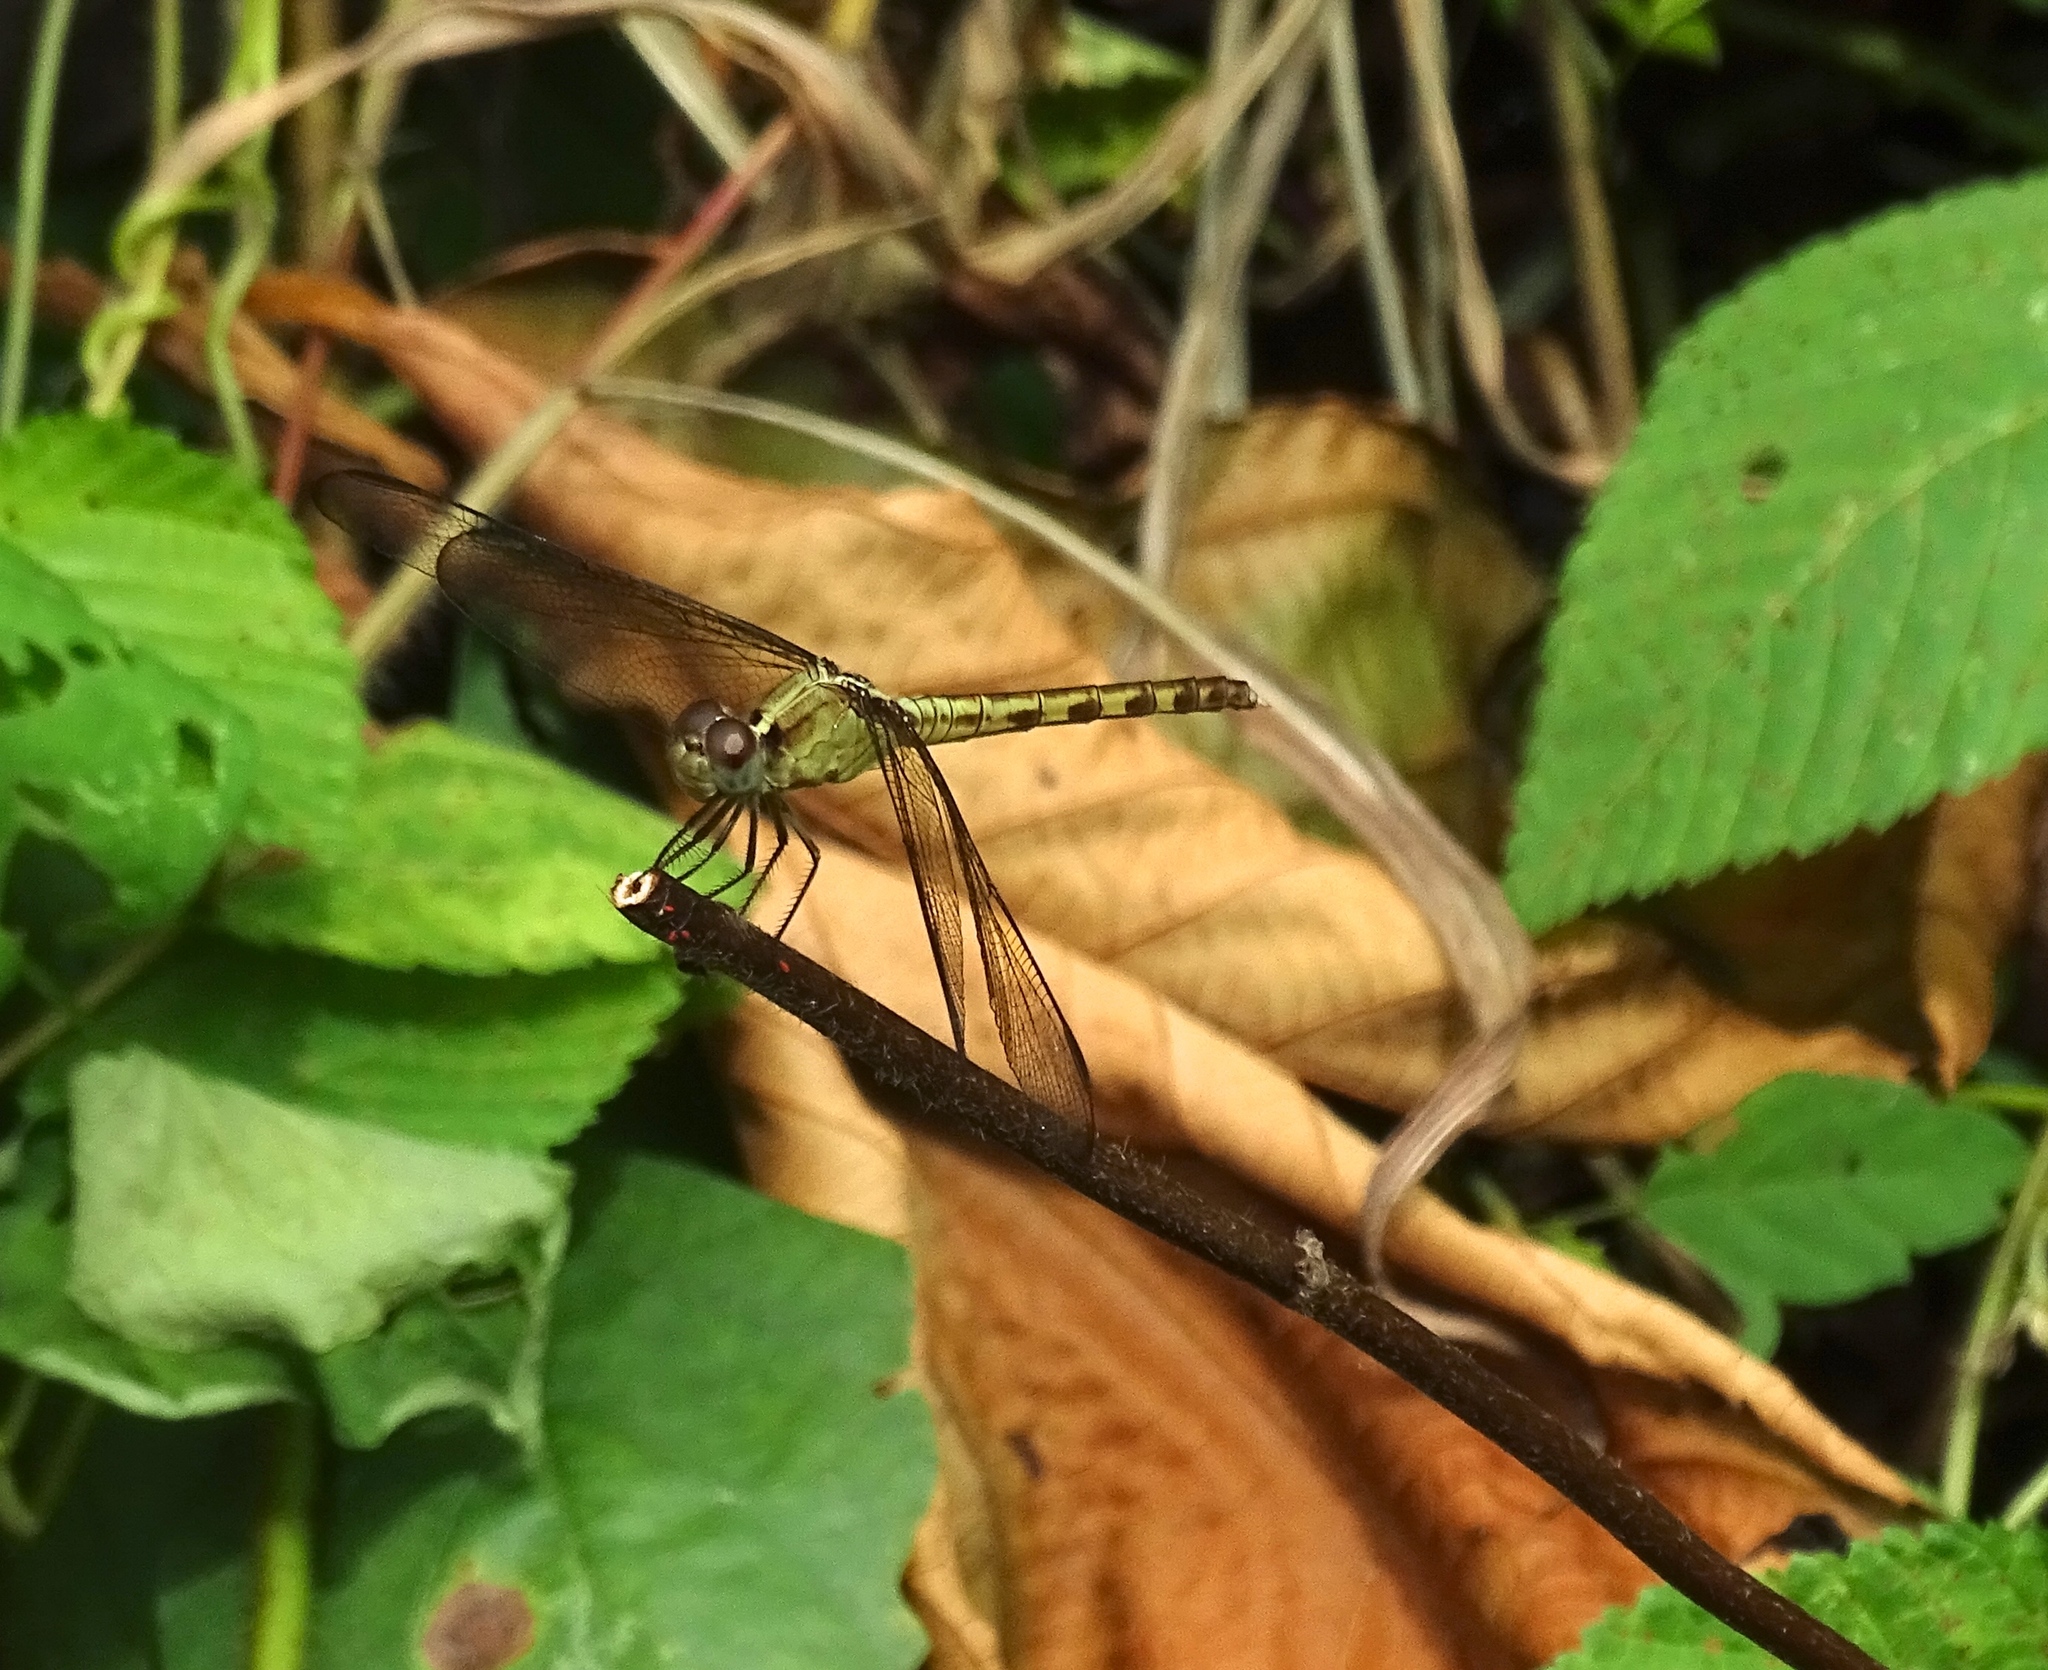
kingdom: Animalia
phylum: Arthropoda
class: Insecta
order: Odonata
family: Libellulidae
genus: Erythrodiplax
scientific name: Erythrodiplax funerea
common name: Black-winged dragonlet
